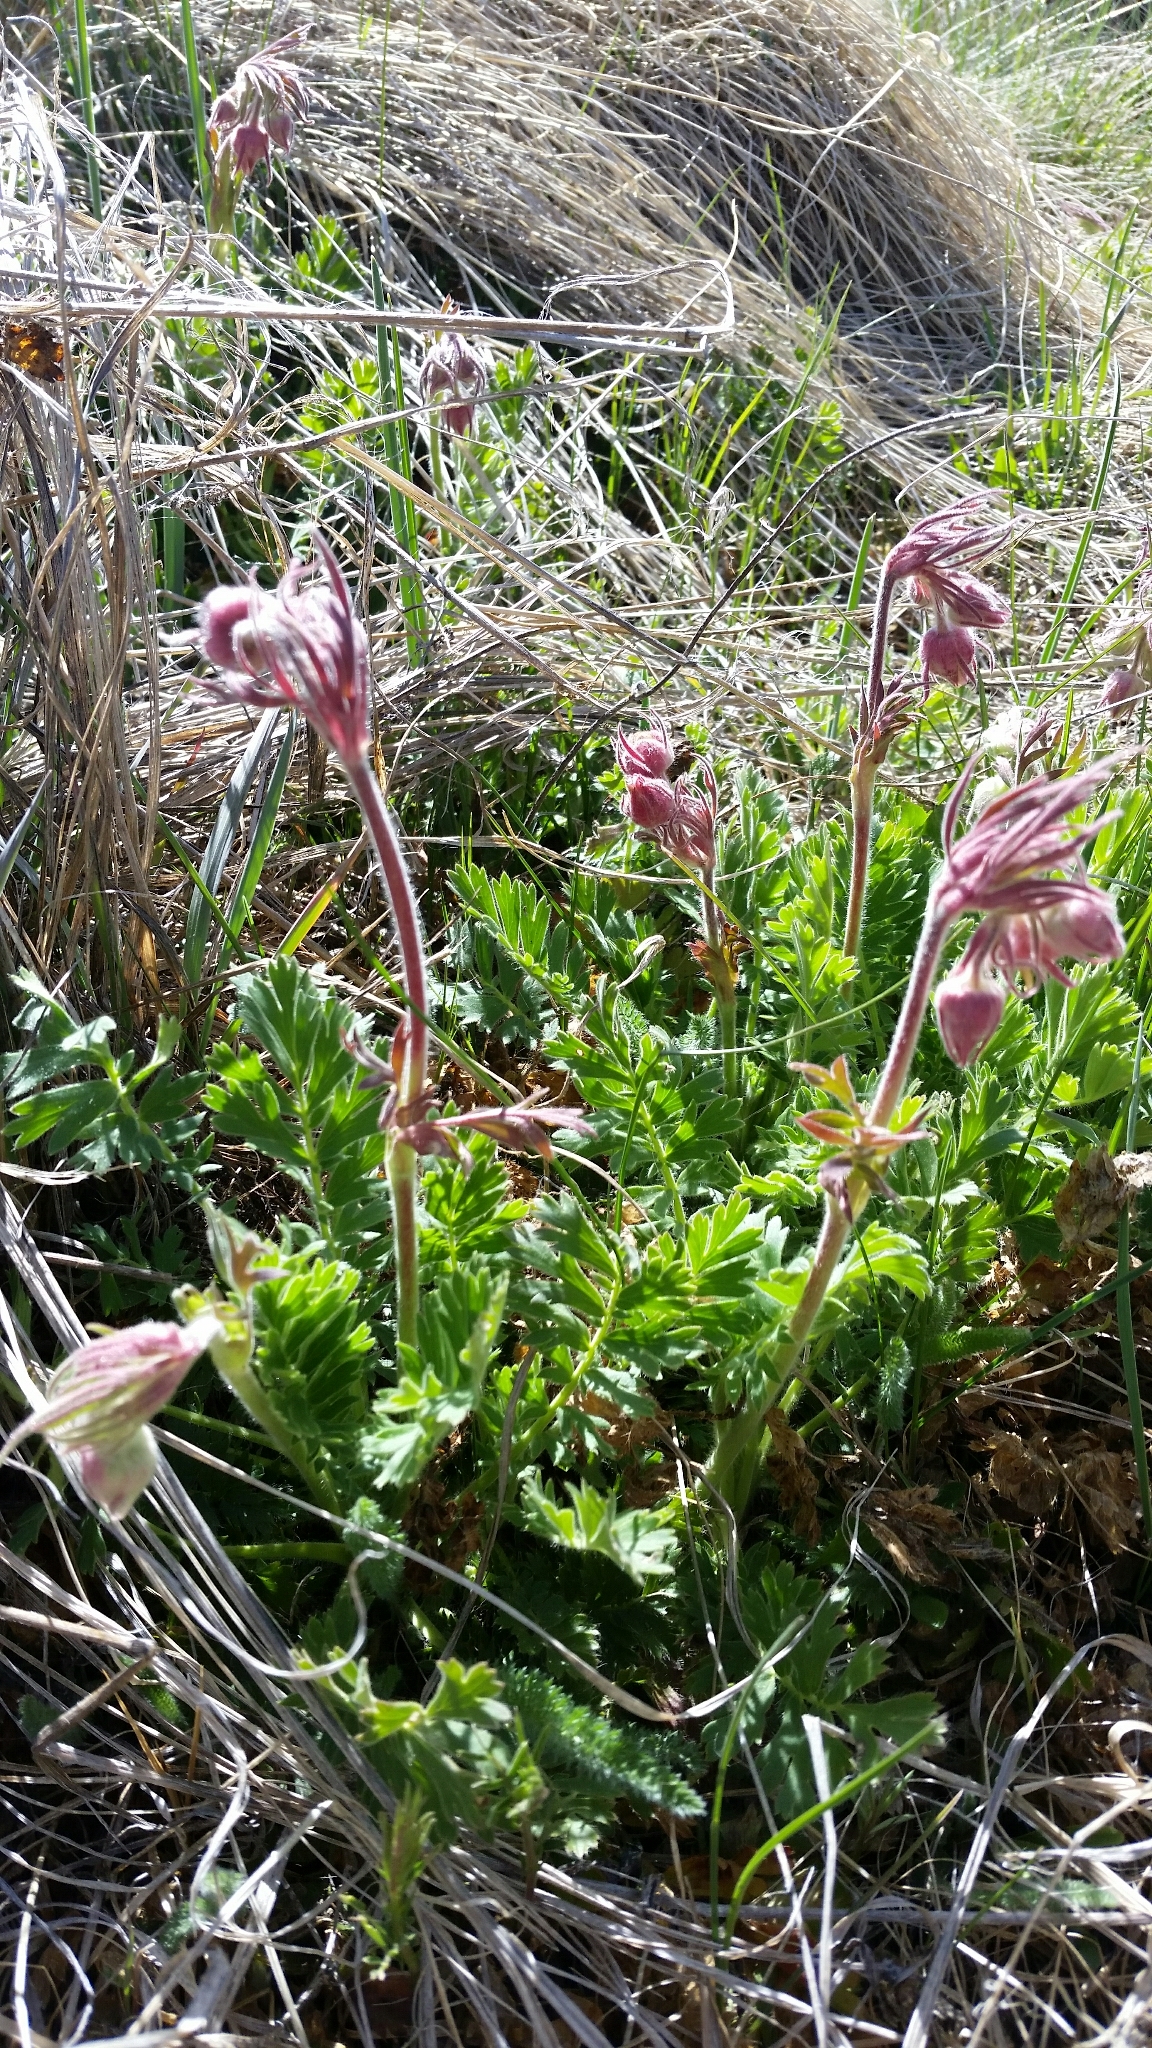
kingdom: Plantae
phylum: Tracheophyta
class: Magnoliopsida
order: Rosales
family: Rosaceae
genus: Geum
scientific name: Geum triflorum
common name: Old man's whiskers
